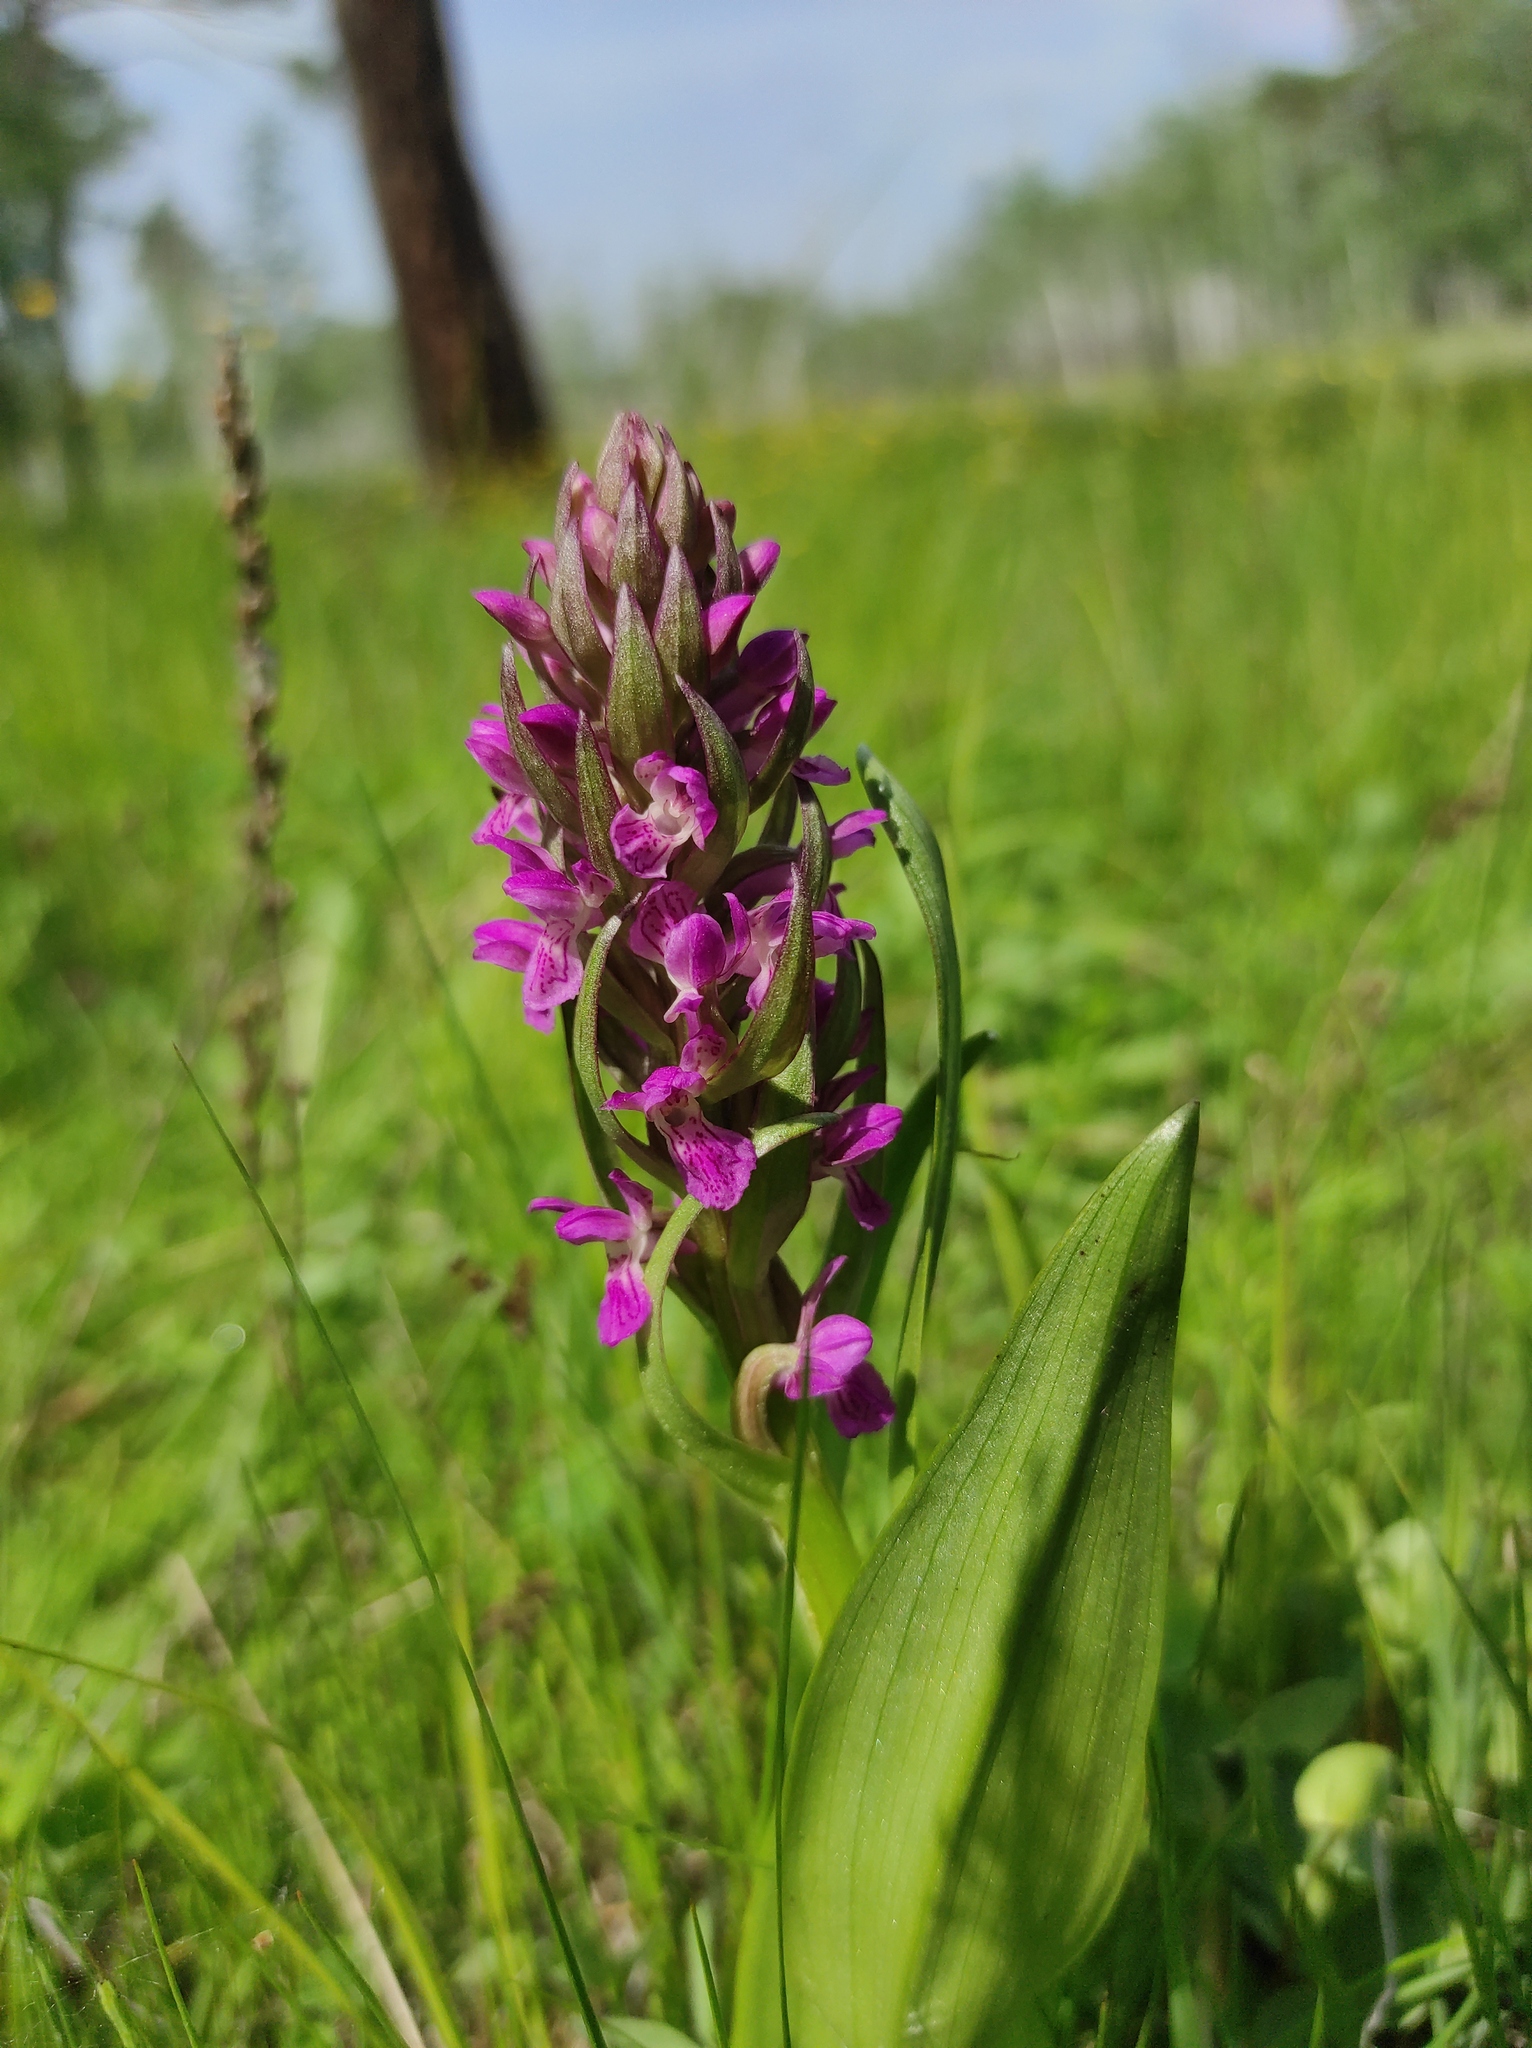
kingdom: Plantae
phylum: Tracheophyta
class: Liliopsida
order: Asparagales
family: Orchidaceae
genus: Dactylorhiza
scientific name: Dactylorhiza incarnata
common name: Early marsh-orchid
